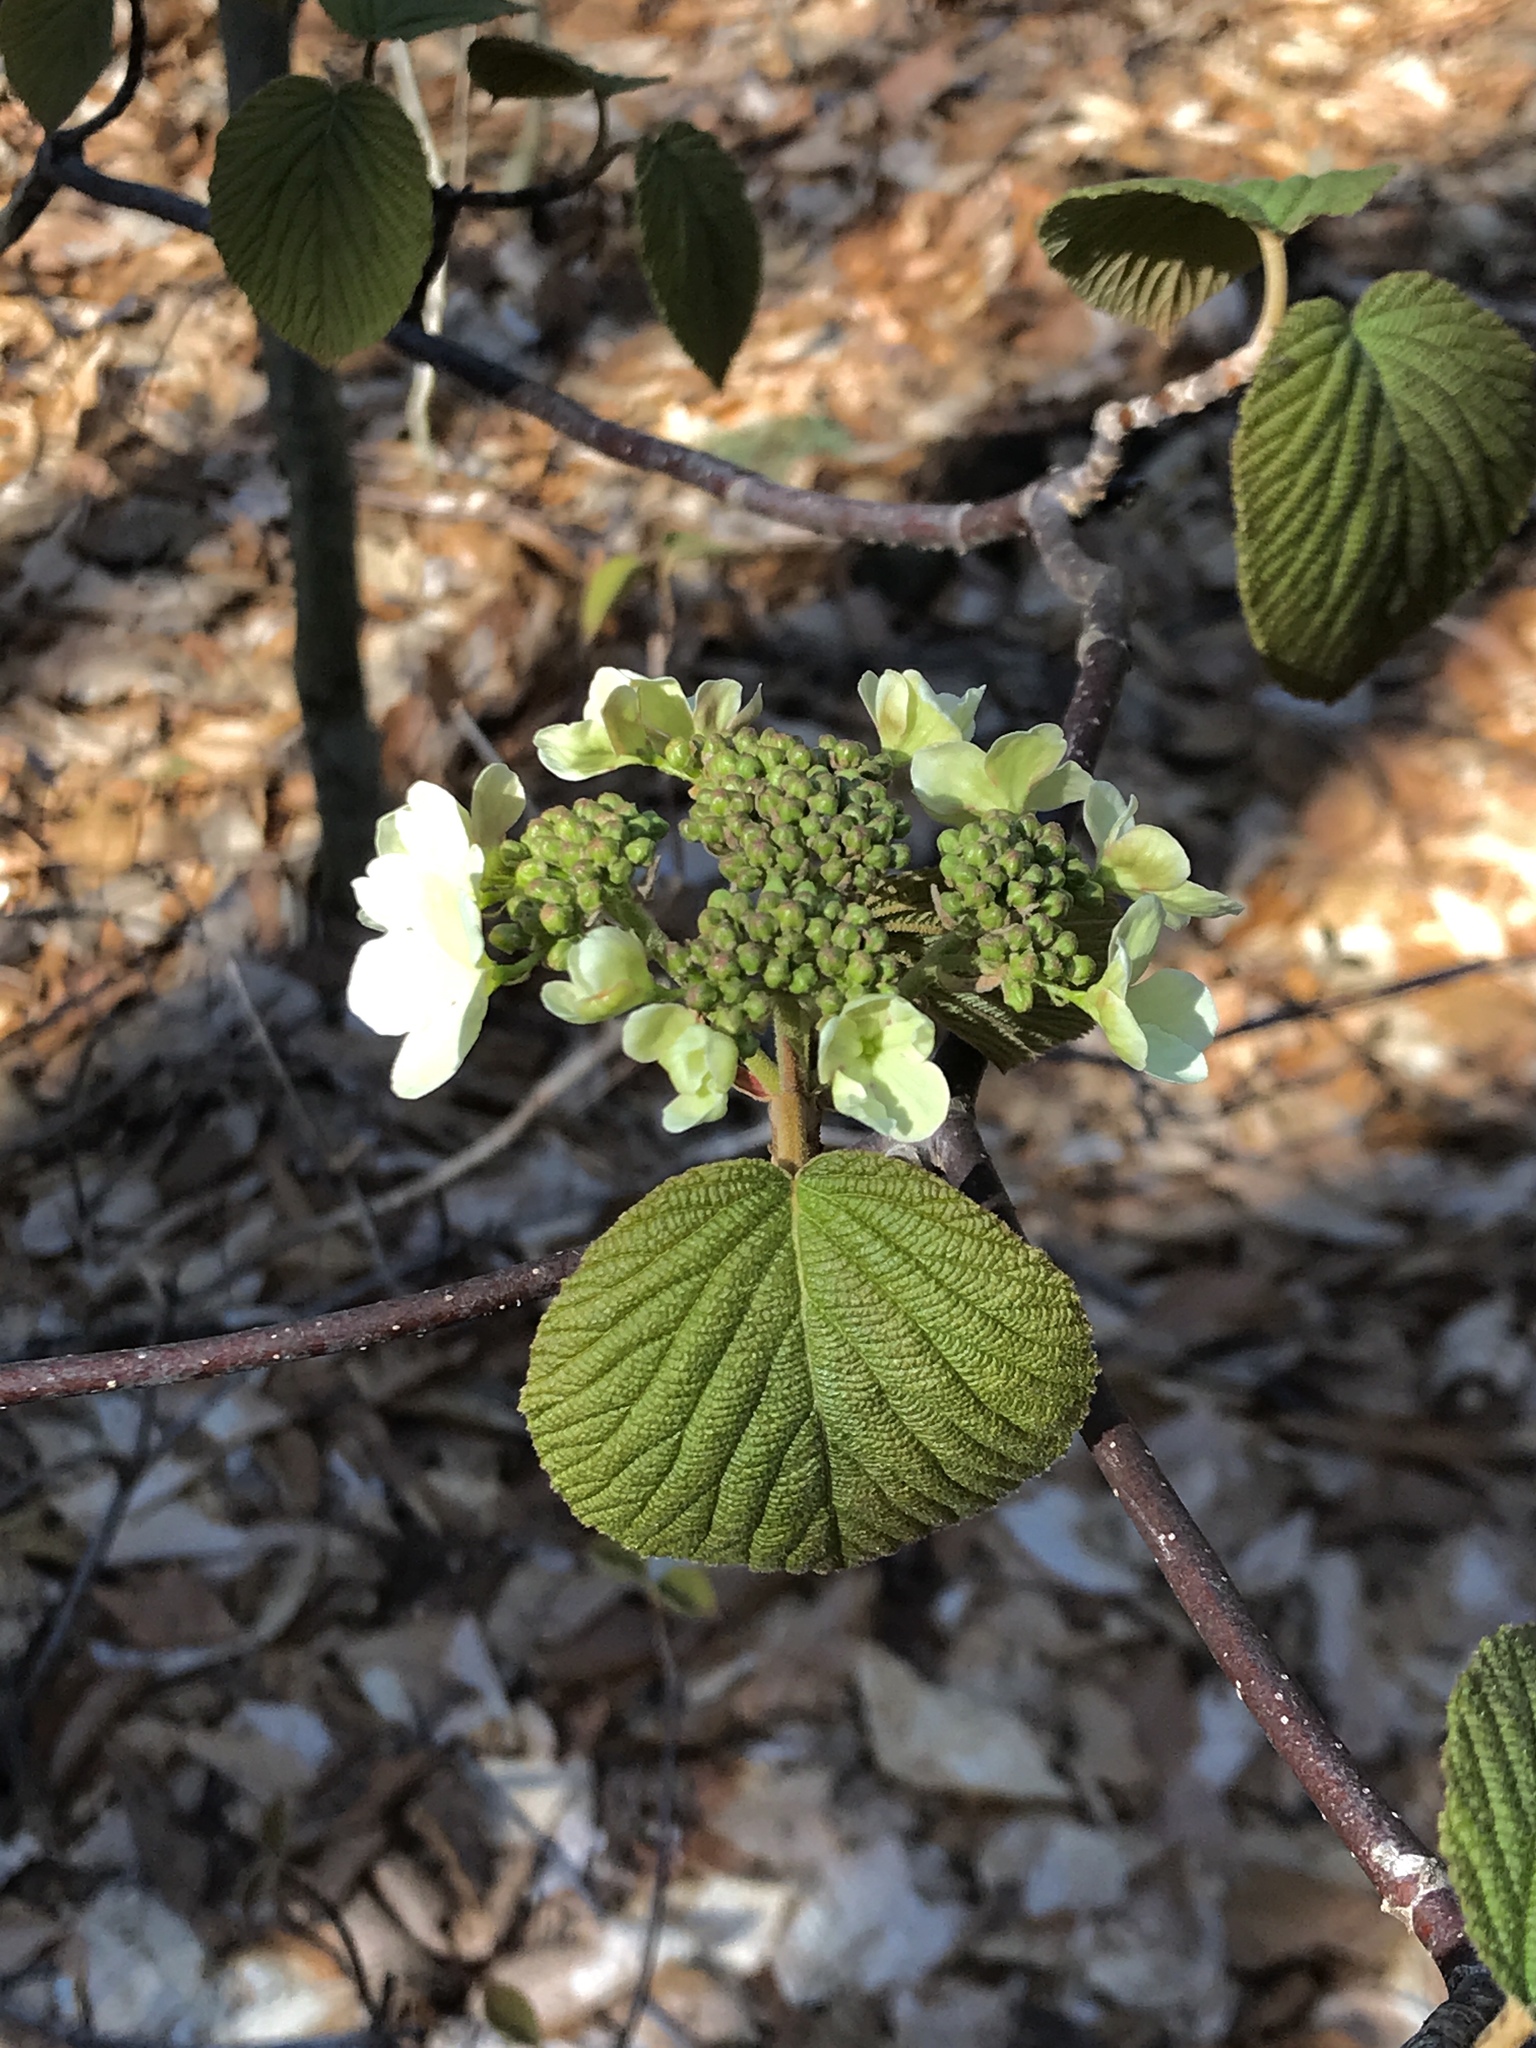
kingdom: Plantae
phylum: Tracheophyta
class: Magnoliopsida
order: Dipsacales
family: Viburnaceae
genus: Viburnum
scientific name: Viburnum lantanoides
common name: Hobblebush
